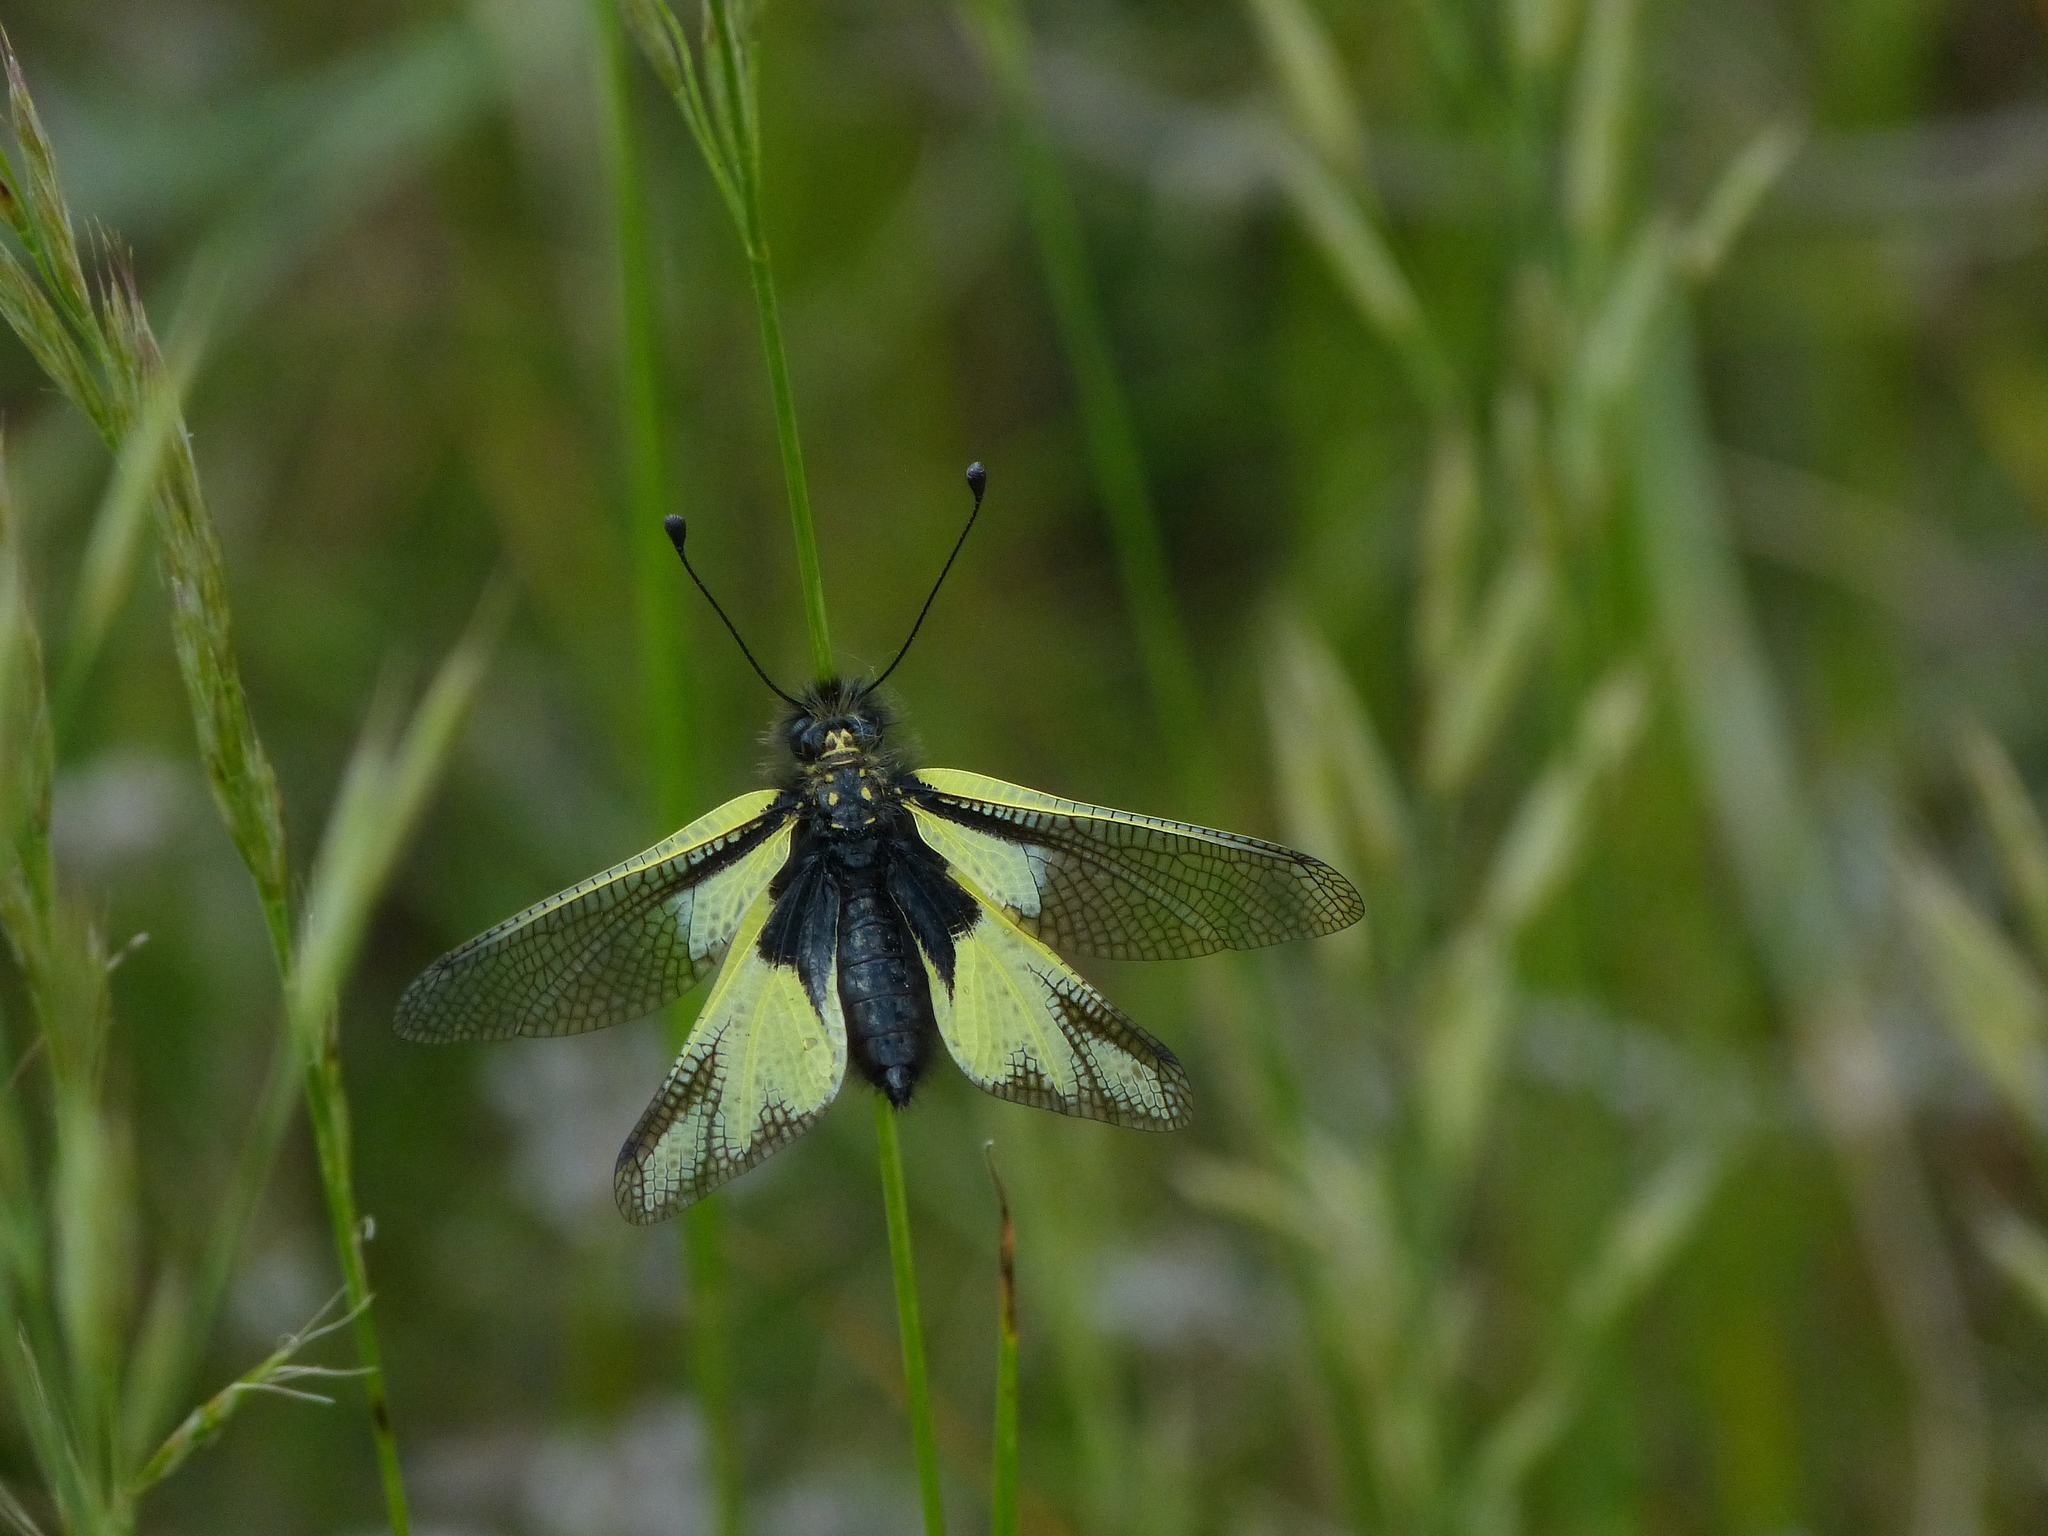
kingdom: Animalia
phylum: Arthropoda
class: Insecta
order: Neuroptera
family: Ascalaphidae
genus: Libelloides
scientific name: Libelloides coccajus
